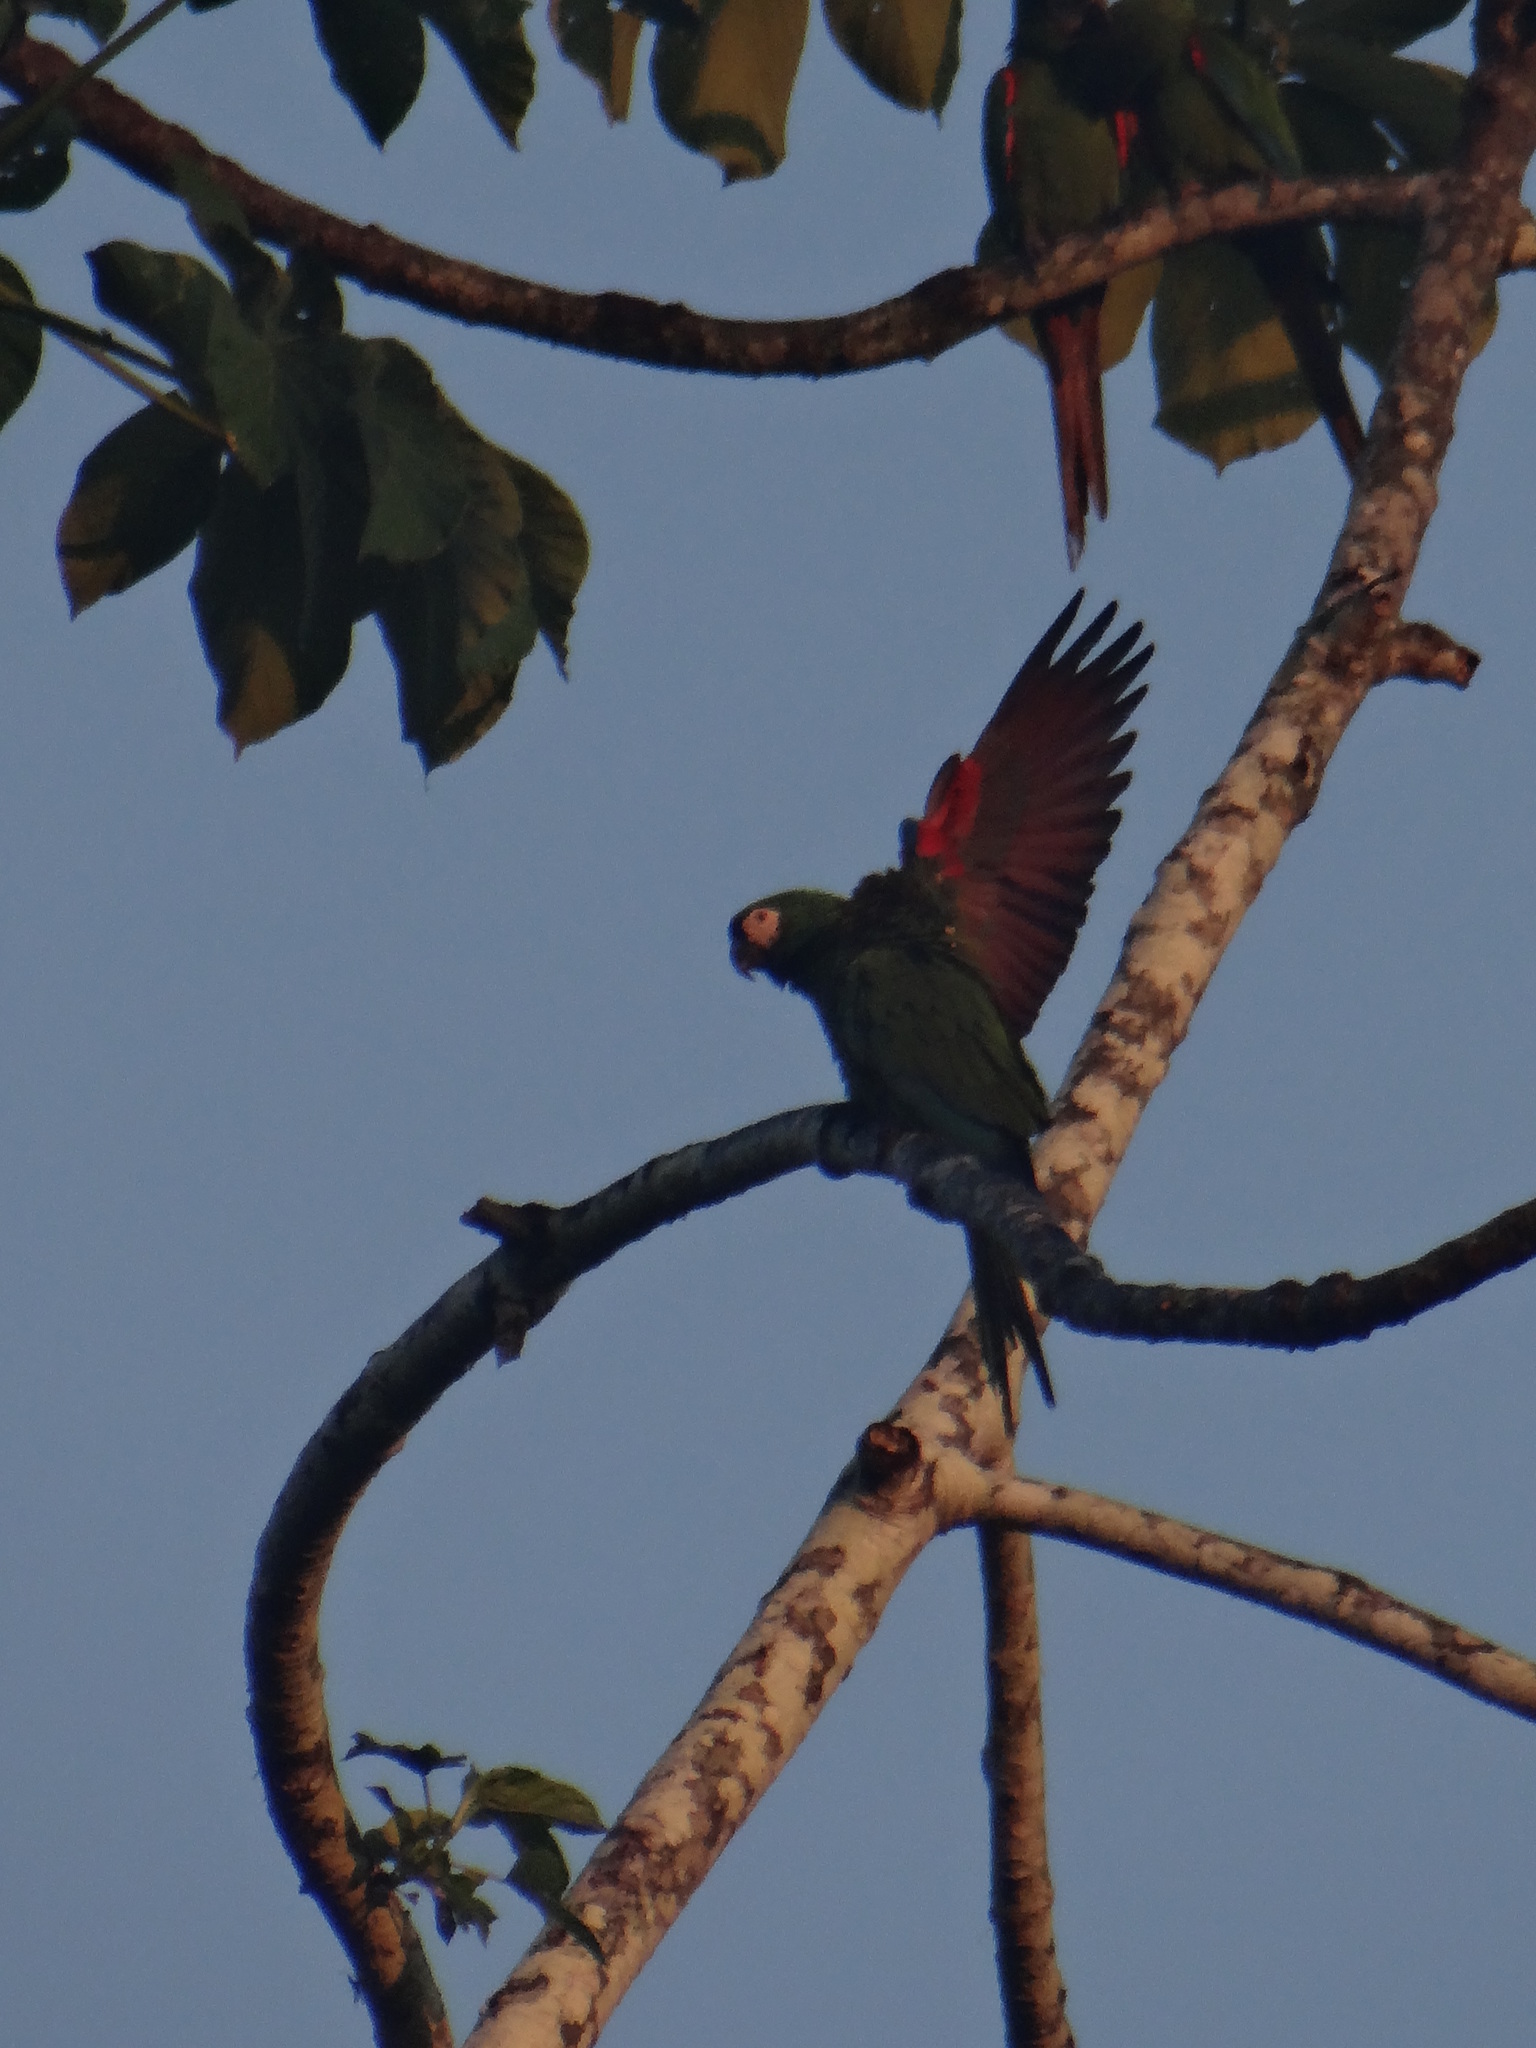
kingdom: Animalia
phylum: Chordata
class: Aves
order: Psittaciformes
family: Psittacidae
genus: Ara
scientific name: Ara severus
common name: Chestnut-fronted macaw
